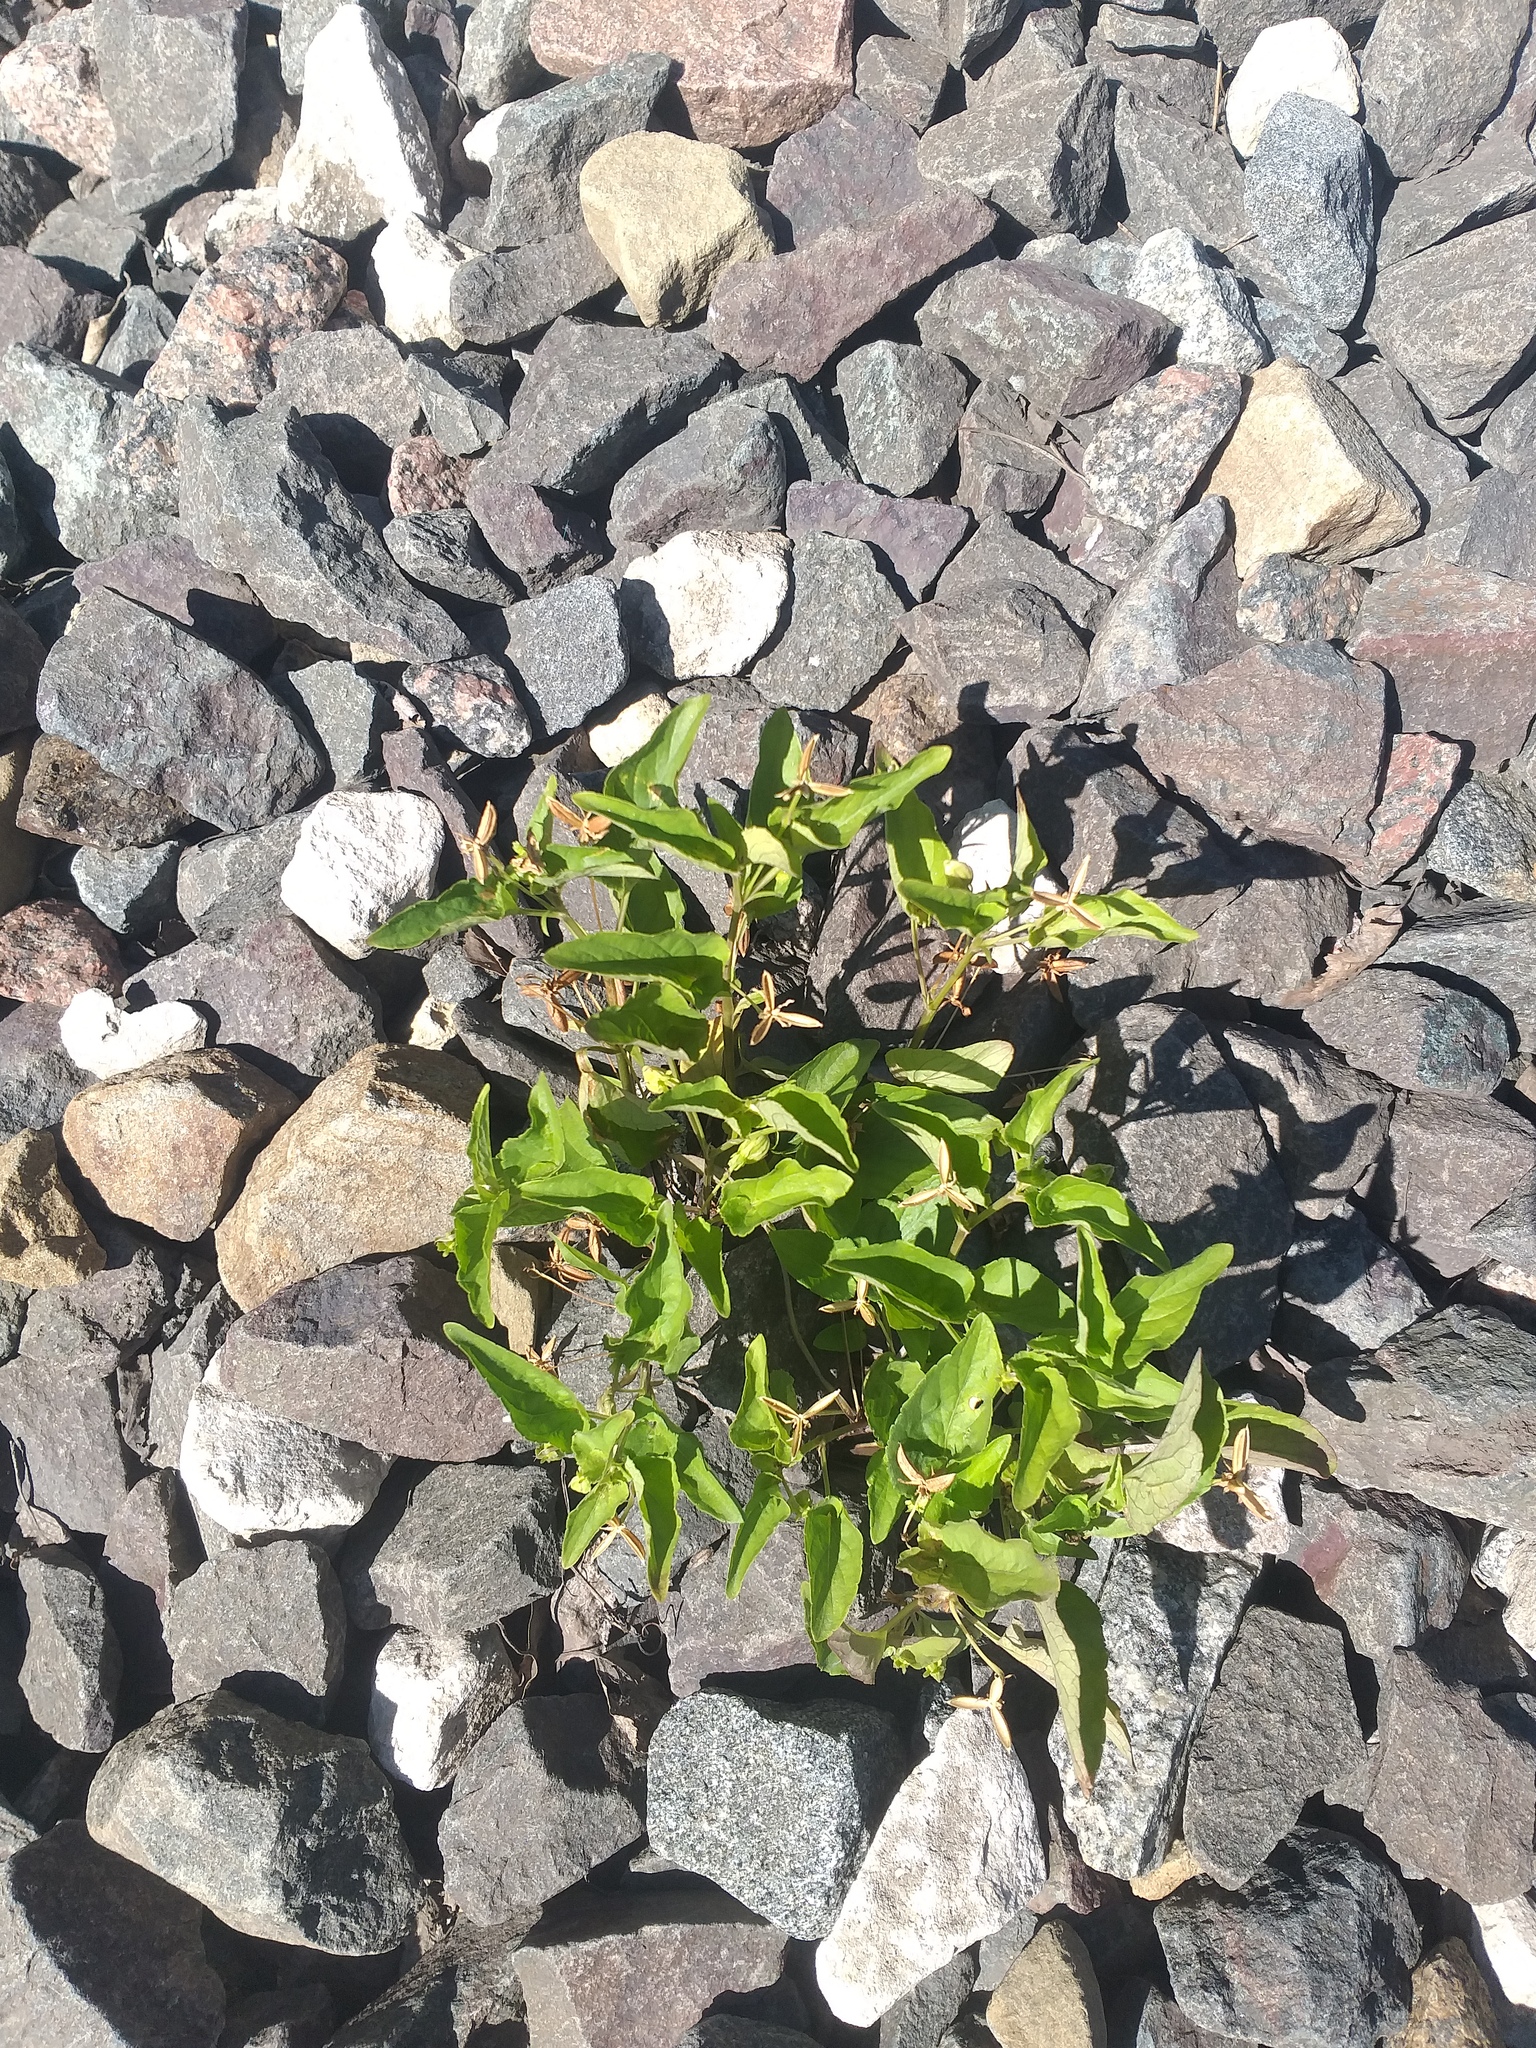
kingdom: Plantae
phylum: Tracheophyta
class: Magnoliopsida
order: Malpighiales
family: Violaceae
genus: Viola
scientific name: Viola canina
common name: Heath dog-violet
